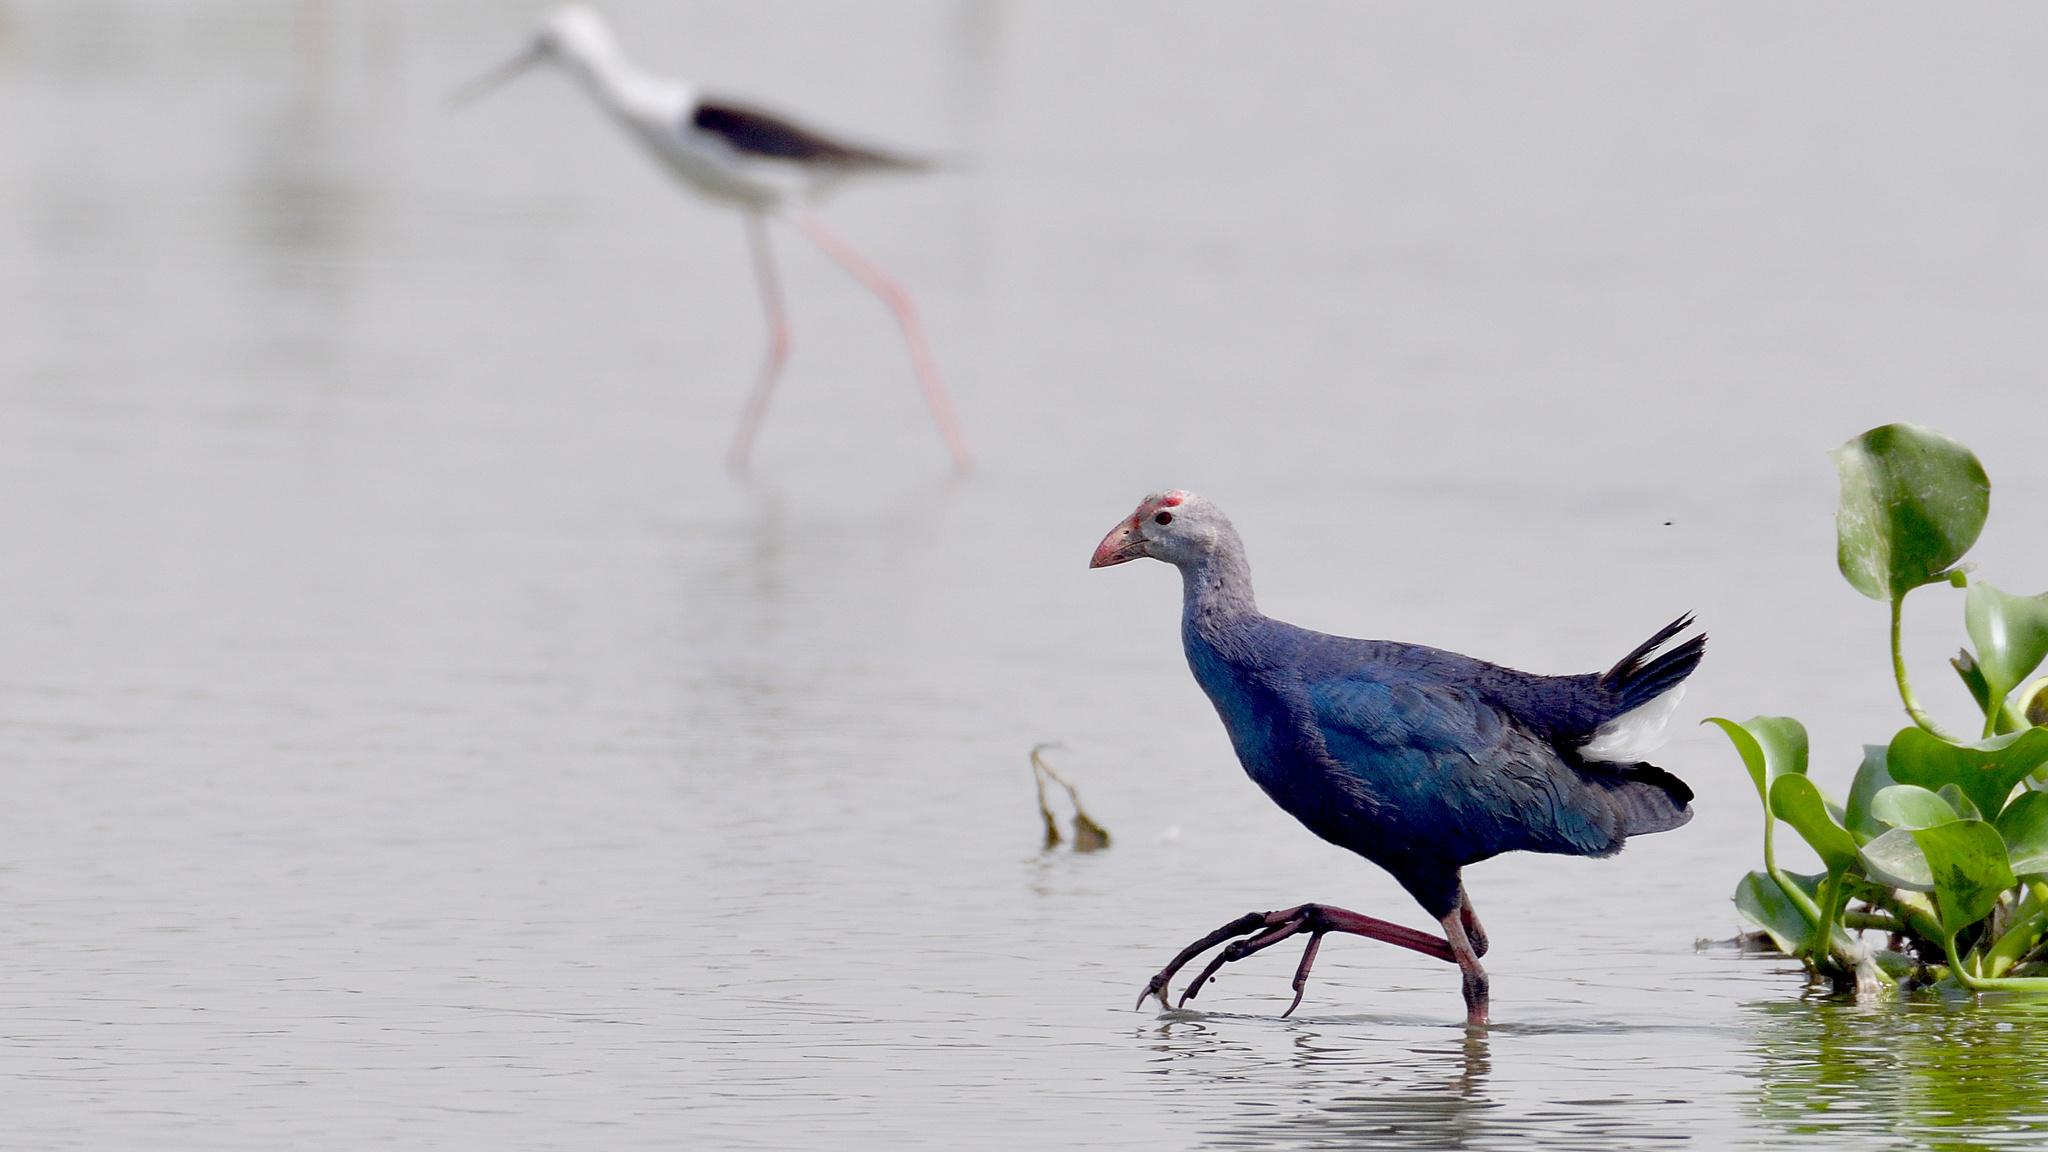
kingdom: Animalia
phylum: Chordata
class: Aves
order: Gruiformes
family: Rallidae
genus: Porphyrio
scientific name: Porphyrio porphyrio
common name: Purple swamphen
